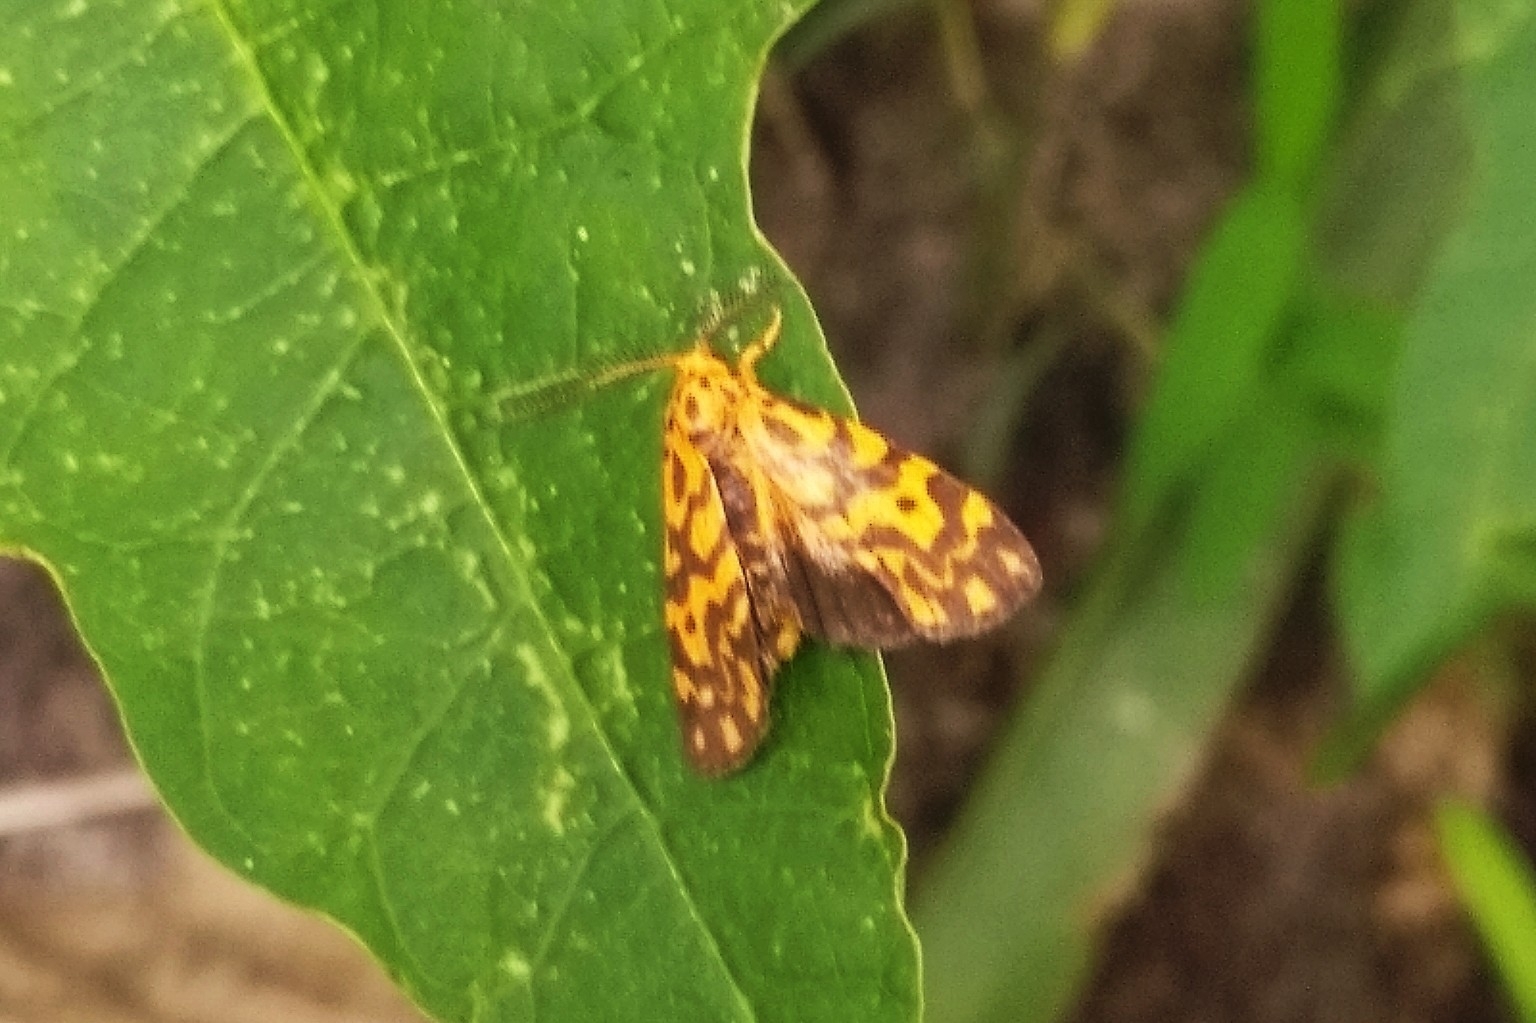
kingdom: Animalia
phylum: Arthropoda
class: Insecta
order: Lepidoptera
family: Erebidae
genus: Nepita
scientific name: Nepita conferta
